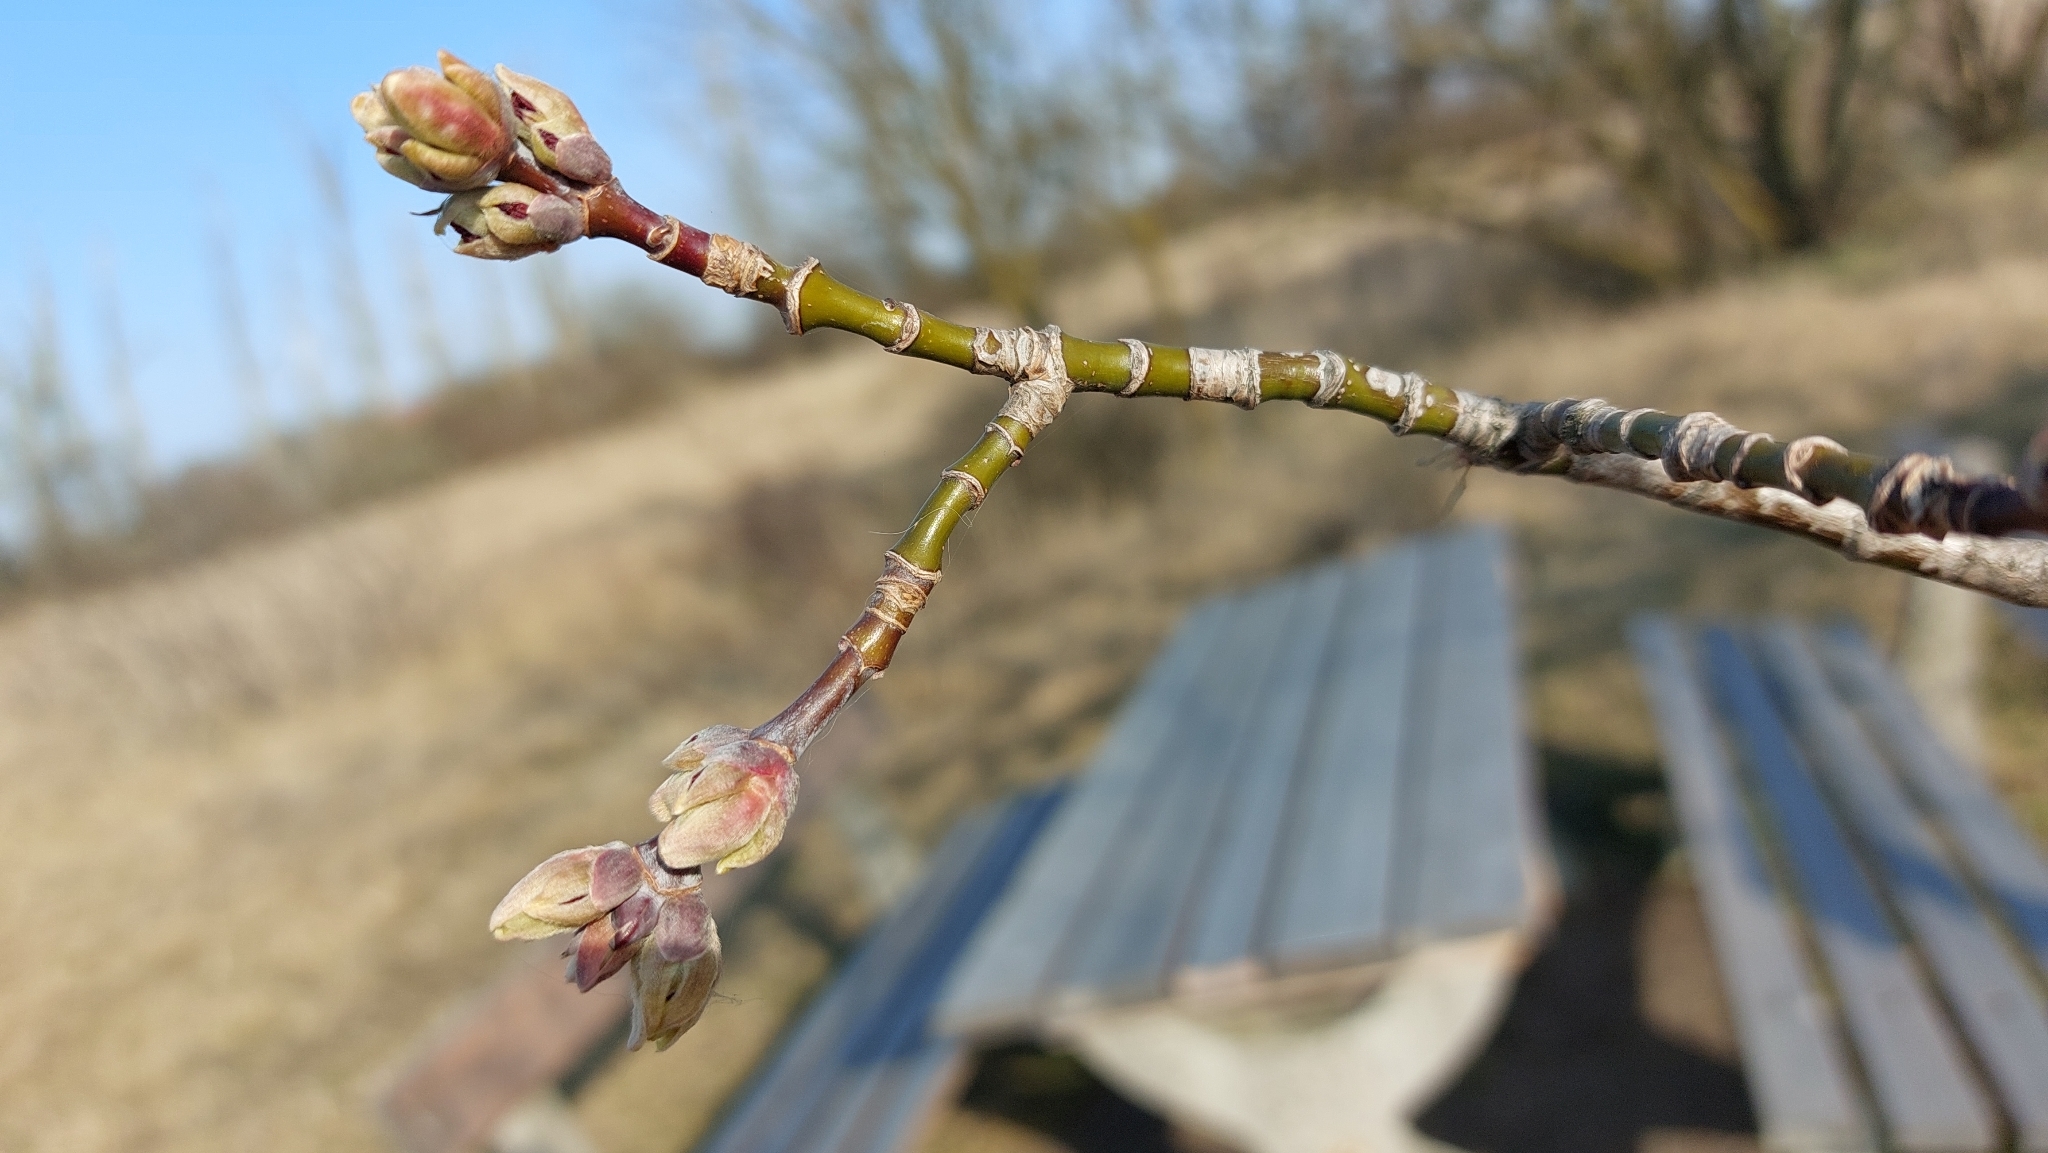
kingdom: Plantae
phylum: Tracheophyta
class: Magnoliopsida
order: Sapindales
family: Sapindaceae
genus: Acer
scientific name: Acer negundo
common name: Ashleaf maple
